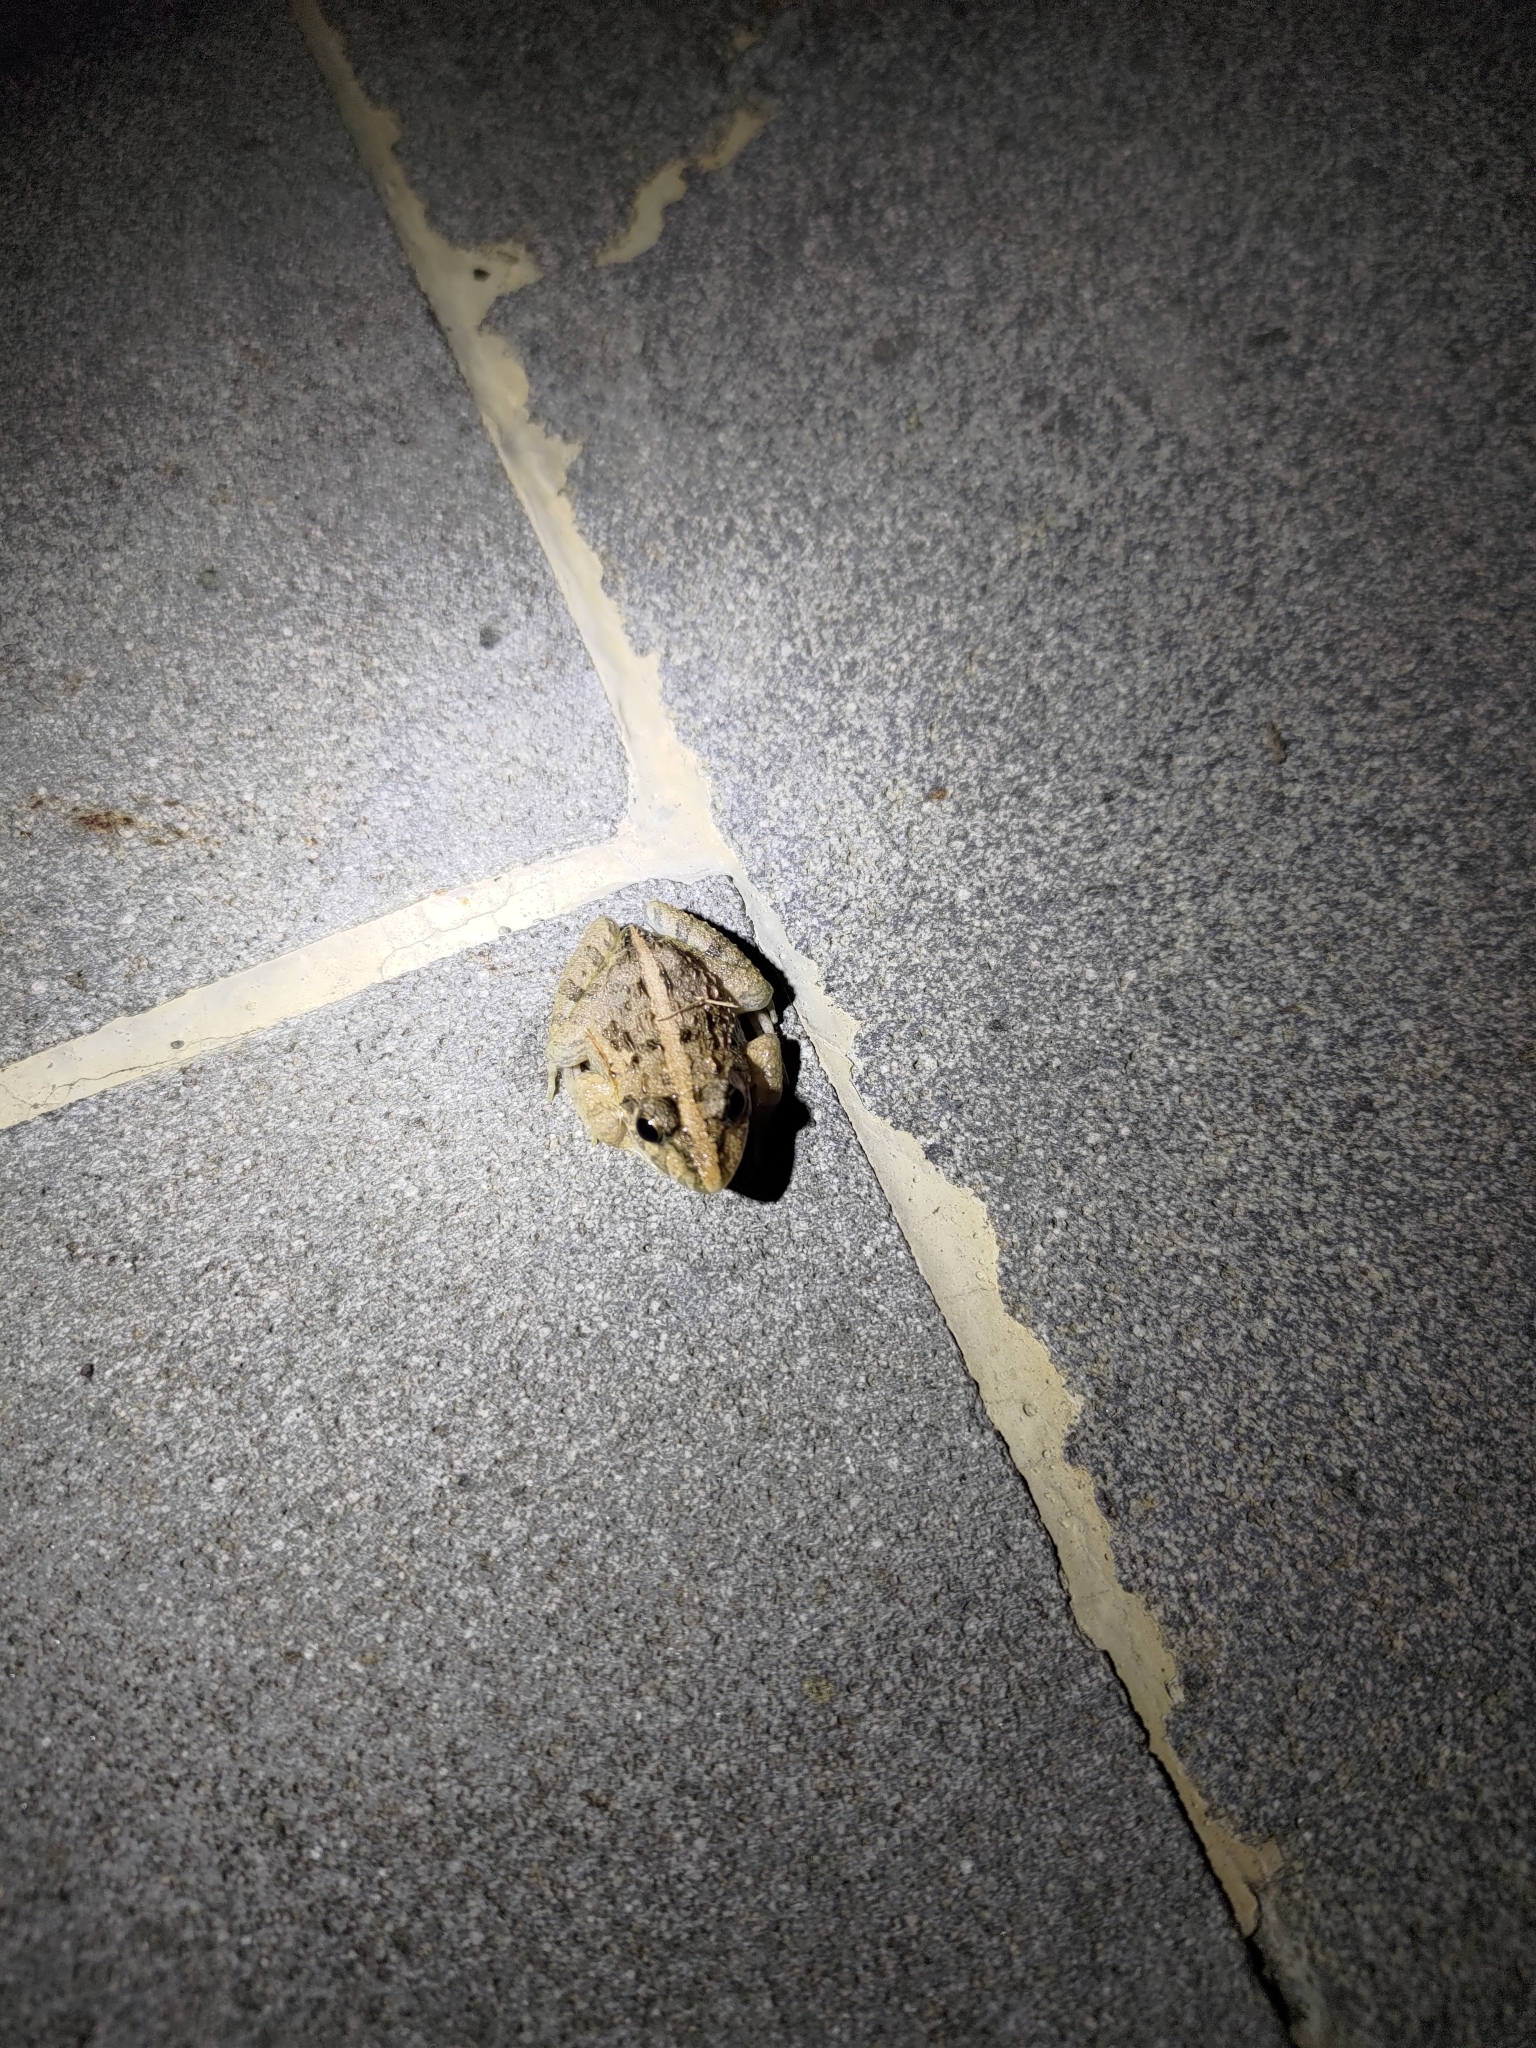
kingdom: Animalia
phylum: Chordata
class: Amphibia
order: Anura
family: Dicroglossidae
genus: Fejervarya
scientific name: Fejervarya limnocharis
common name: Asian grass frog/common pond frog/field frog/grass frog/indian rice frog
